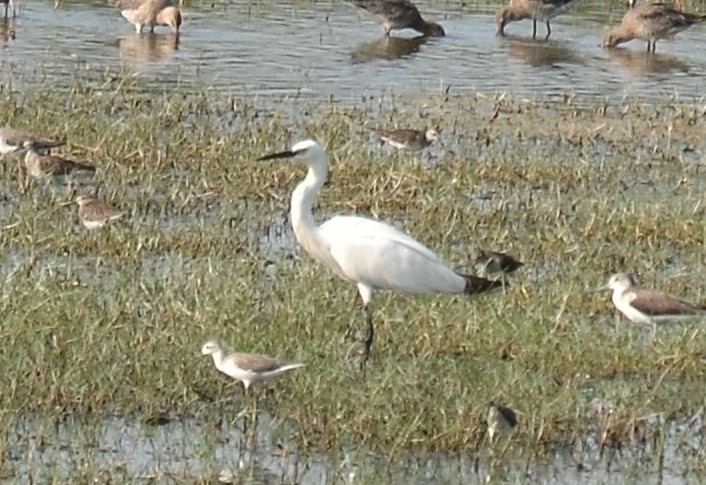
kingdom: Animalia
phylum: Chordata
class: Aves
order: Pelecaniformes
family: Ardeidae
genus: Egretta
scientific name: Egretta garzetta
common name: Little egret
